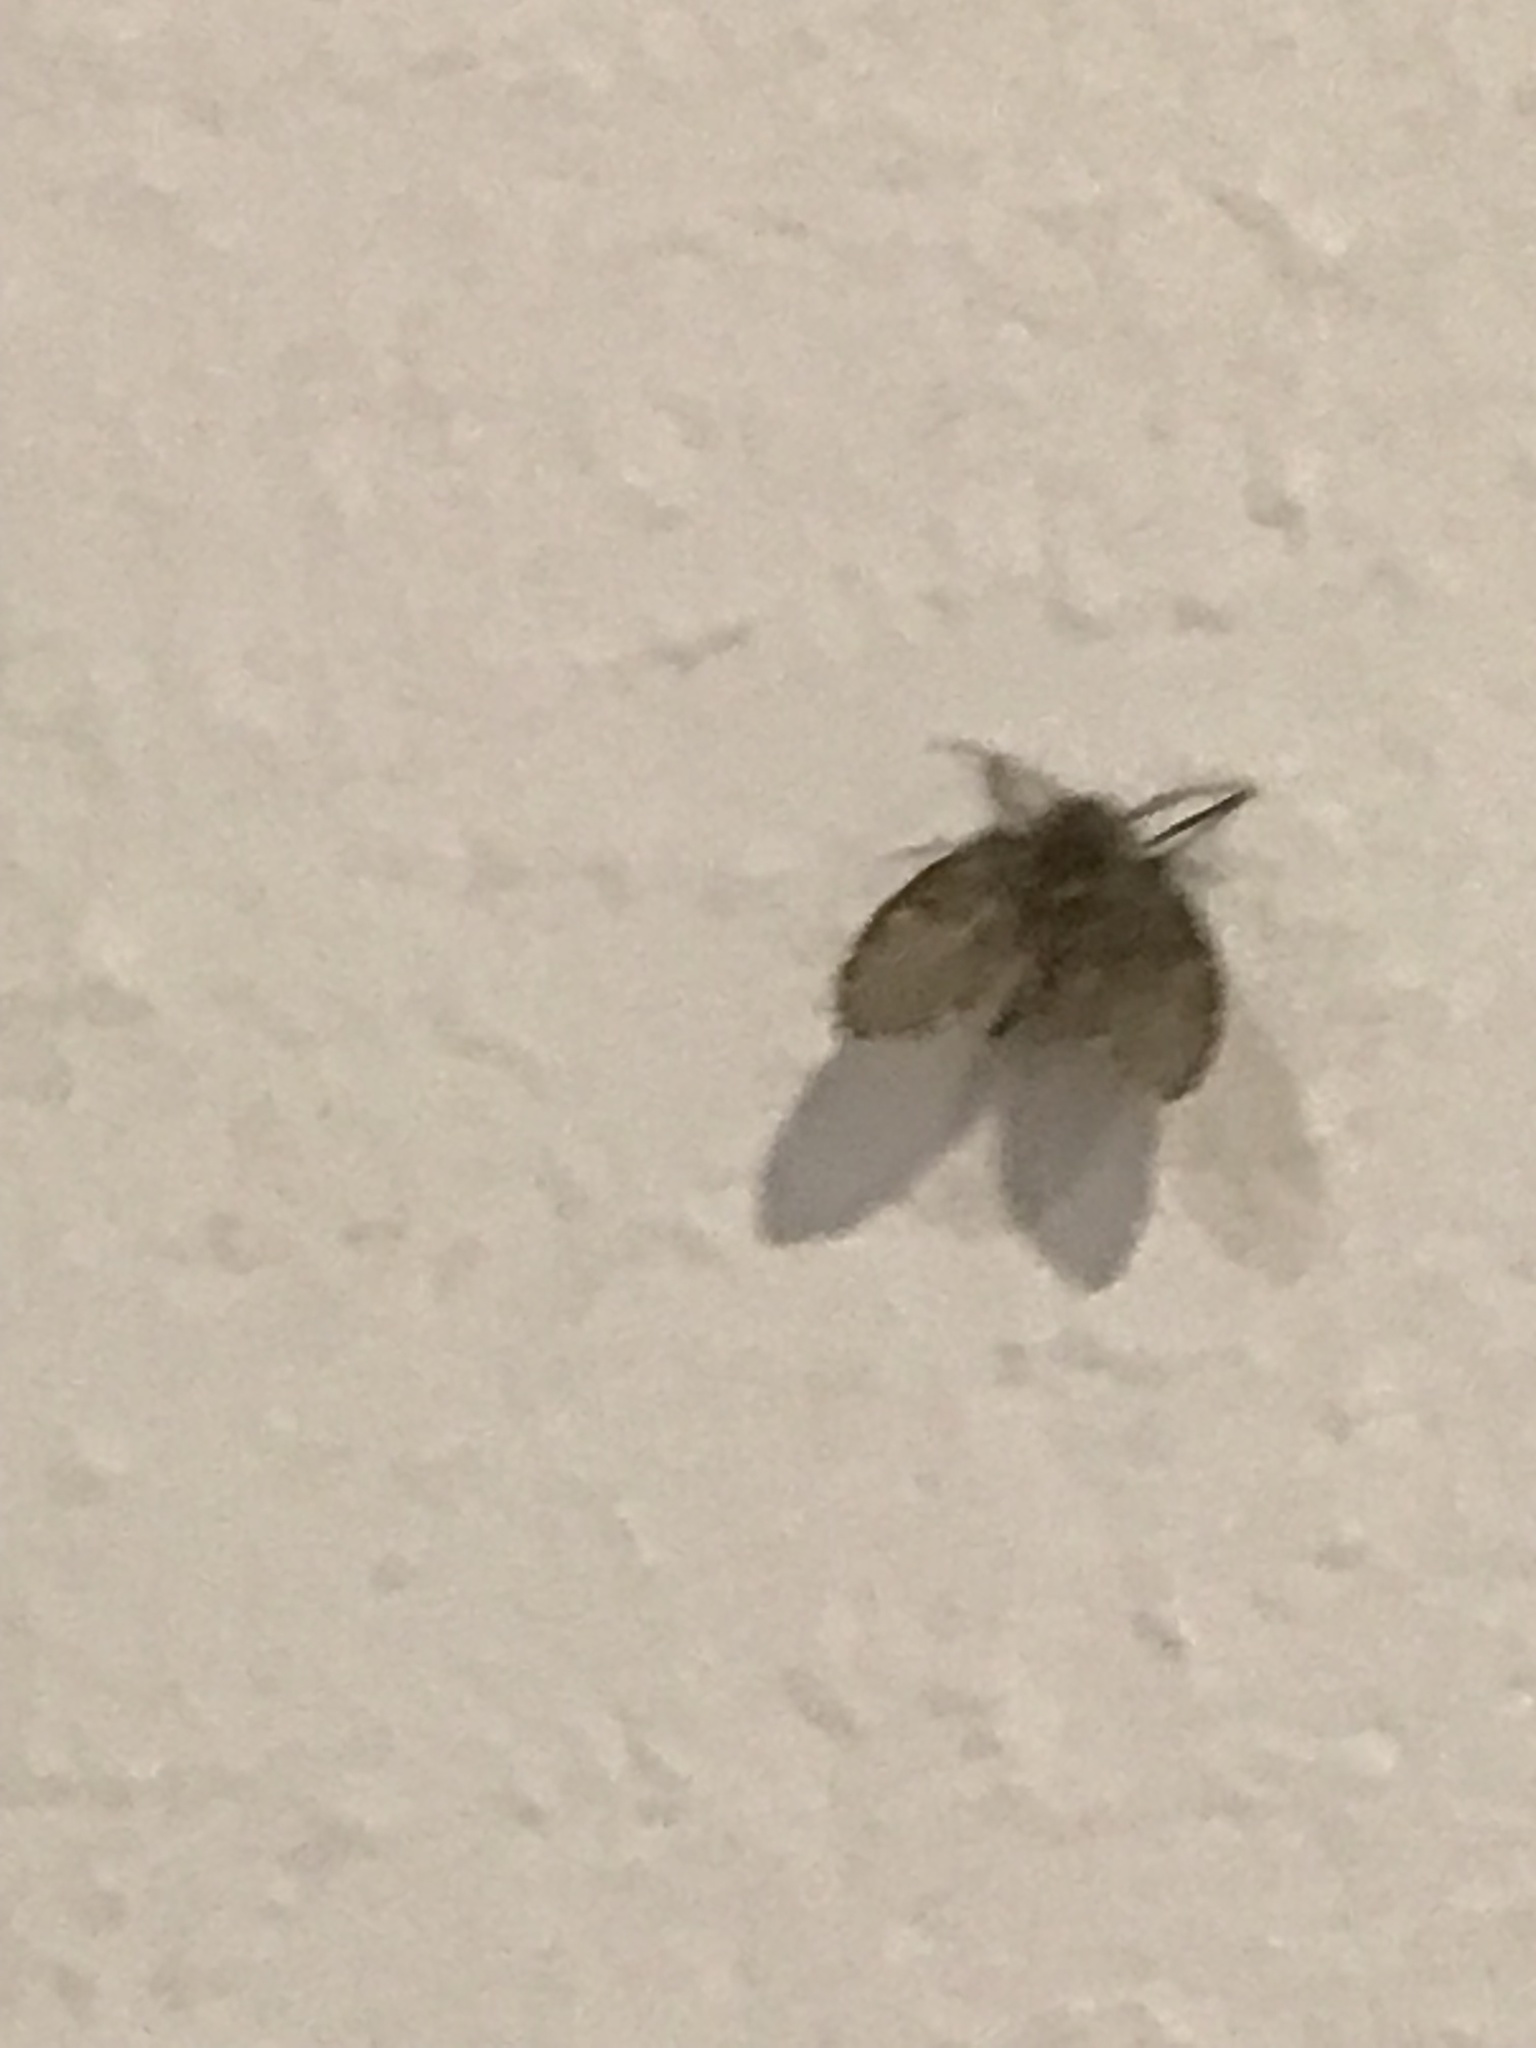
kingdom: Animalia
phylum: Arthropoda
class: Insecta
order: Diptera
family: Psychodidae
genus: Clogmia
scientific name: Clogmia albipunctatus
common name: White-spotted moth fly
